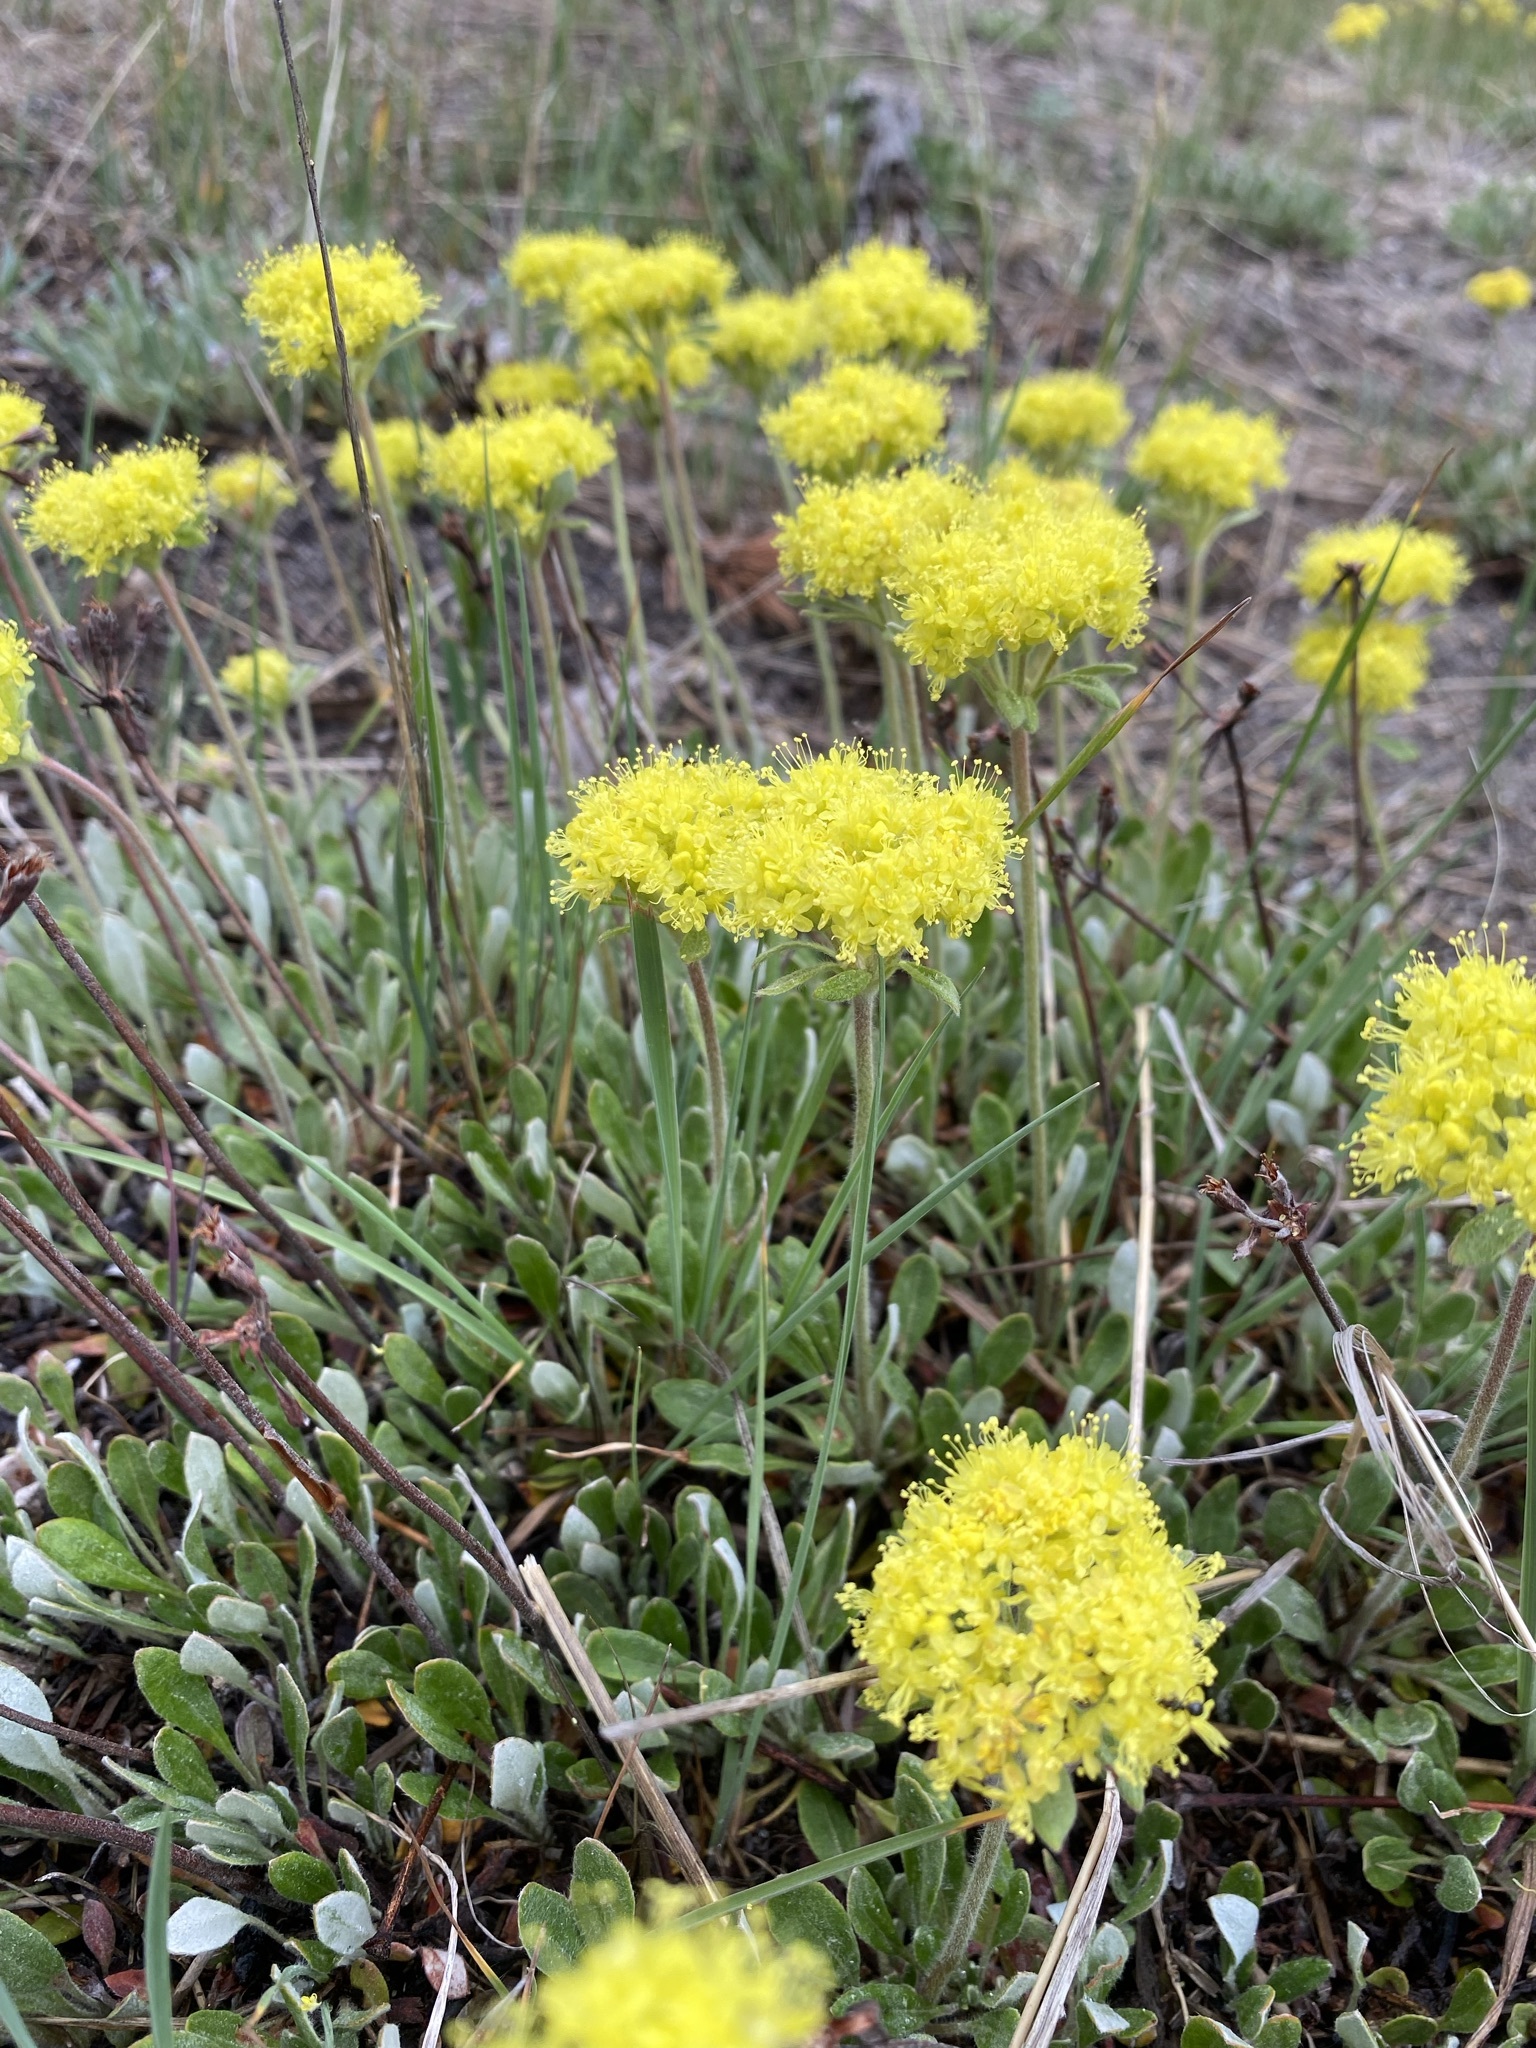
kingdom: Plantae
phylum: Tracheophyta
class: Magnoliopsida
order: Caryophyllales
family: Polygonaceae
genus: Eriogonum
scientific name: Eriogonum flavum
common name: Alpine golden wild buckwheat
